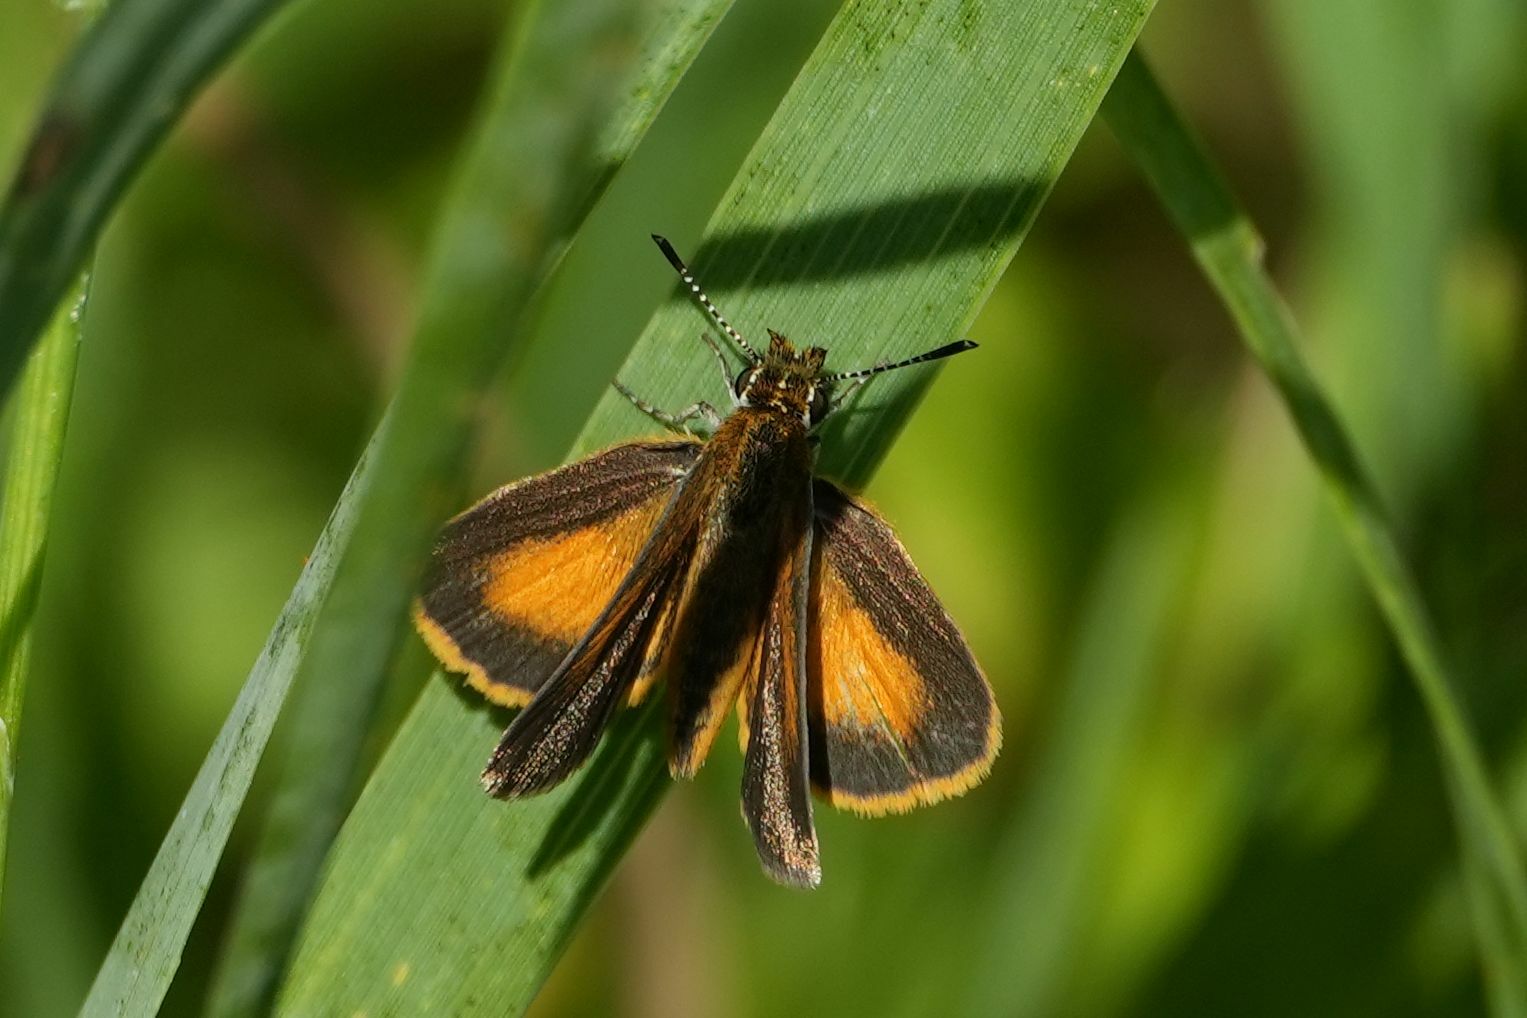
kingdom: Animalia
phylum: Arthropoda
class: Insecta
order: Lepidoptera
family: Hesperiidae
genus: Ancyloxypha
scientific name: Ancyloxypha numitor
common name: Least skipper
